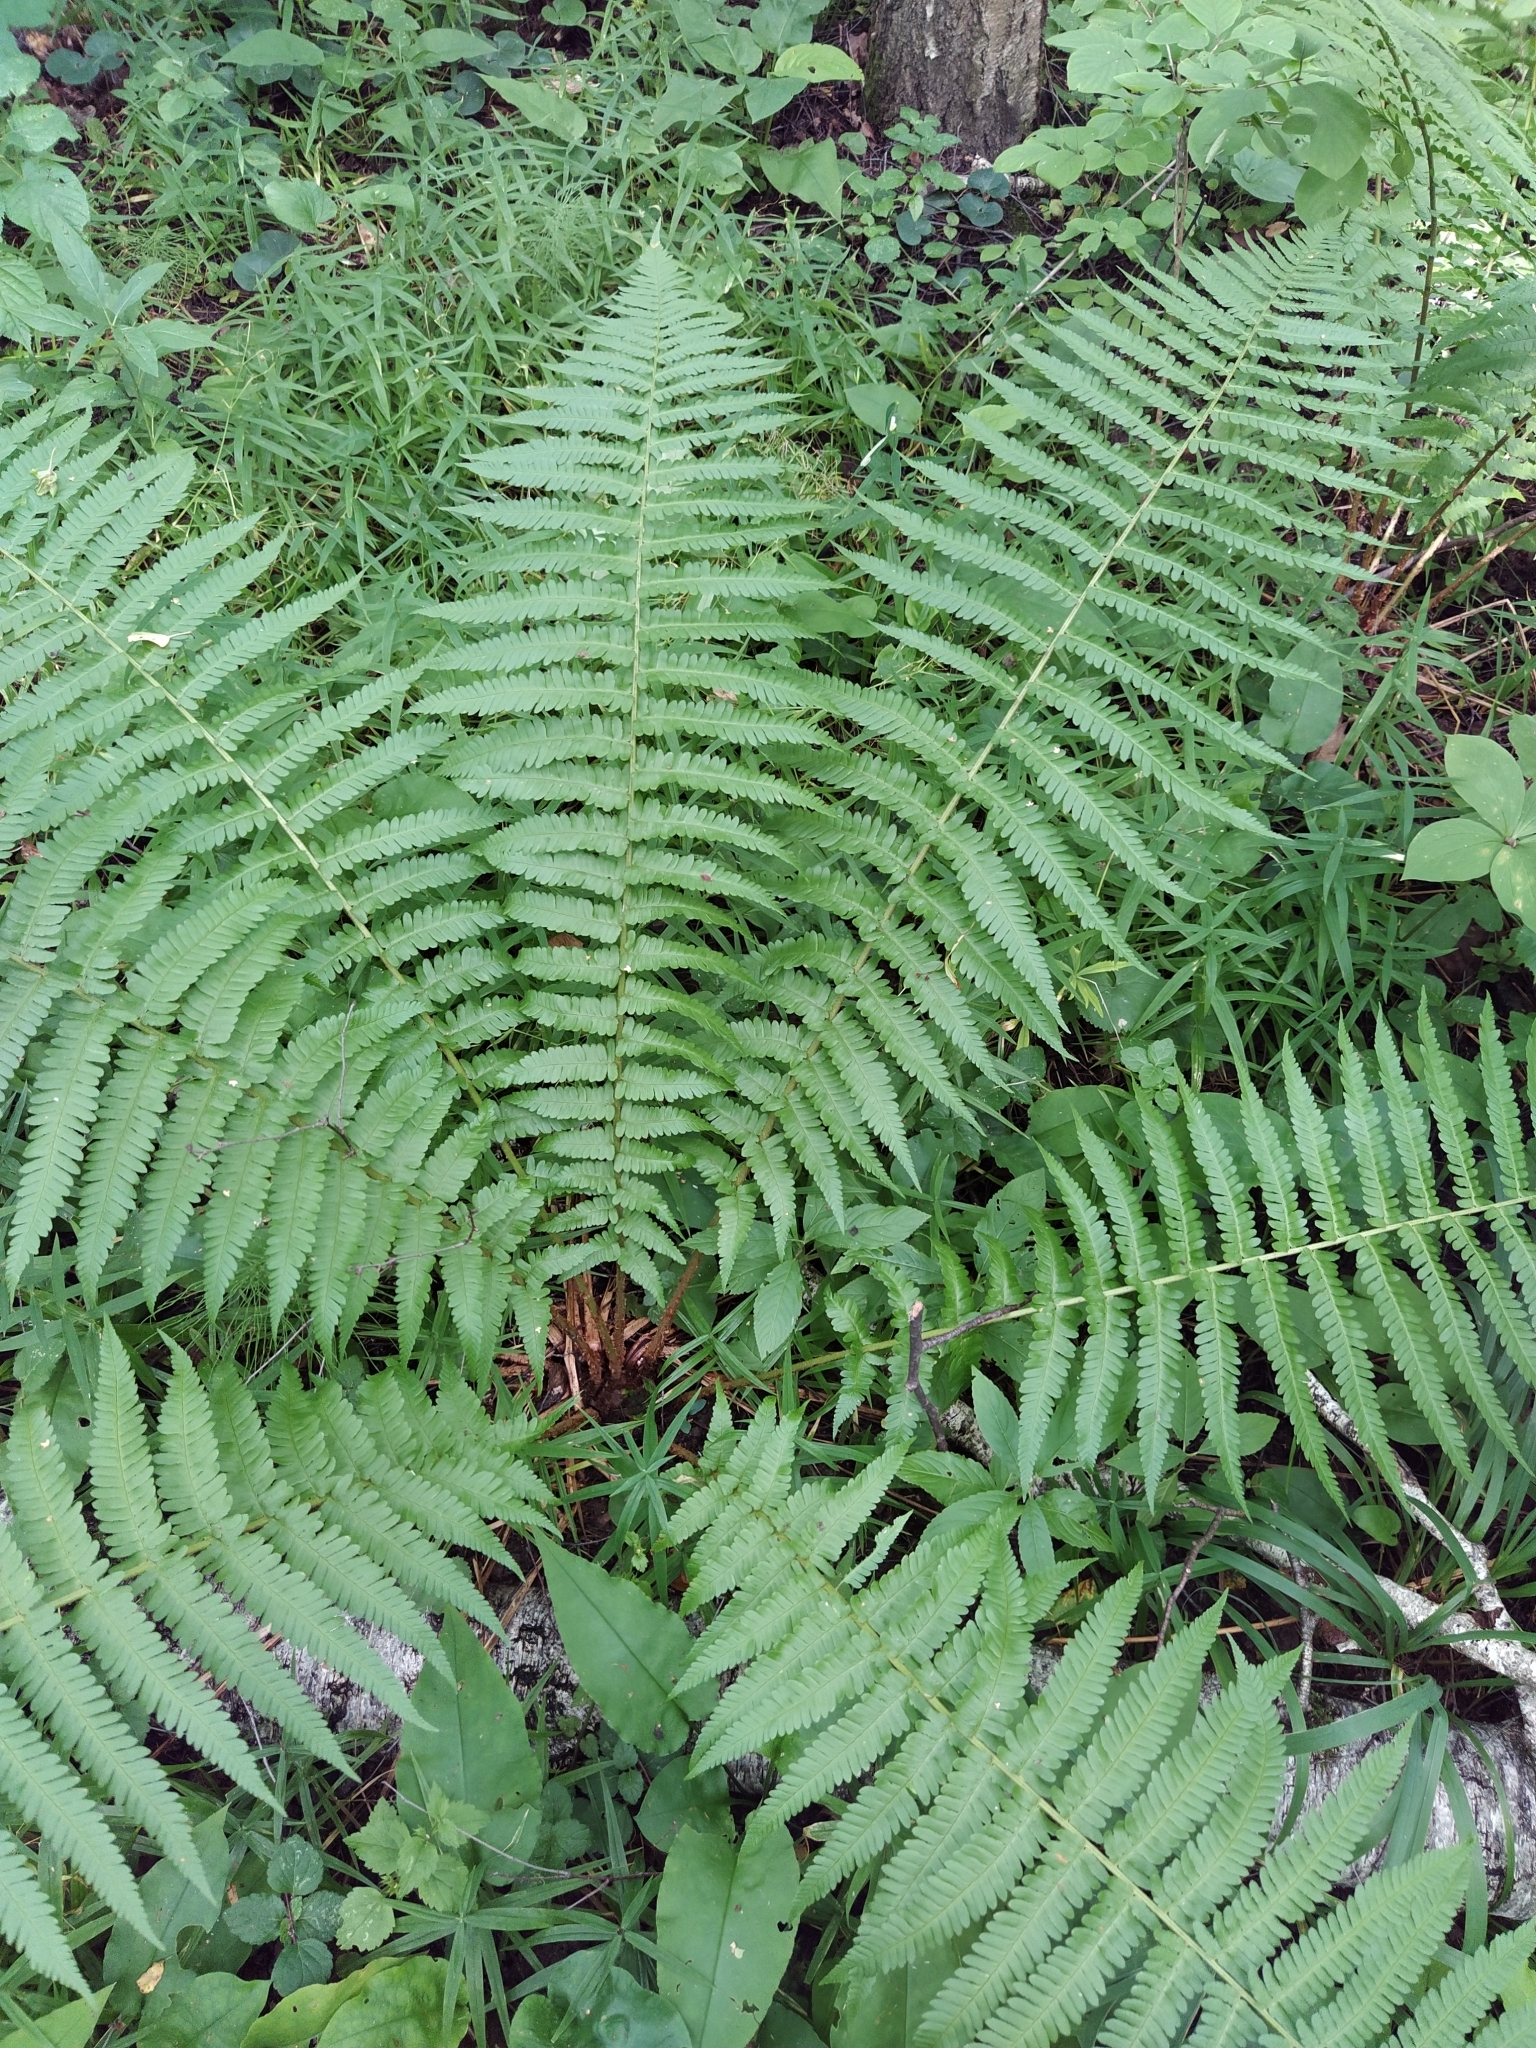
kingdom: Plantae
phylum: Tracheophyta
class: Polypodiopsida
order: Polypodiales
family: Dryopteridaceae
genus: Dryopteris
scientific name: Dryopteris filix-mas
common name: Male fern
